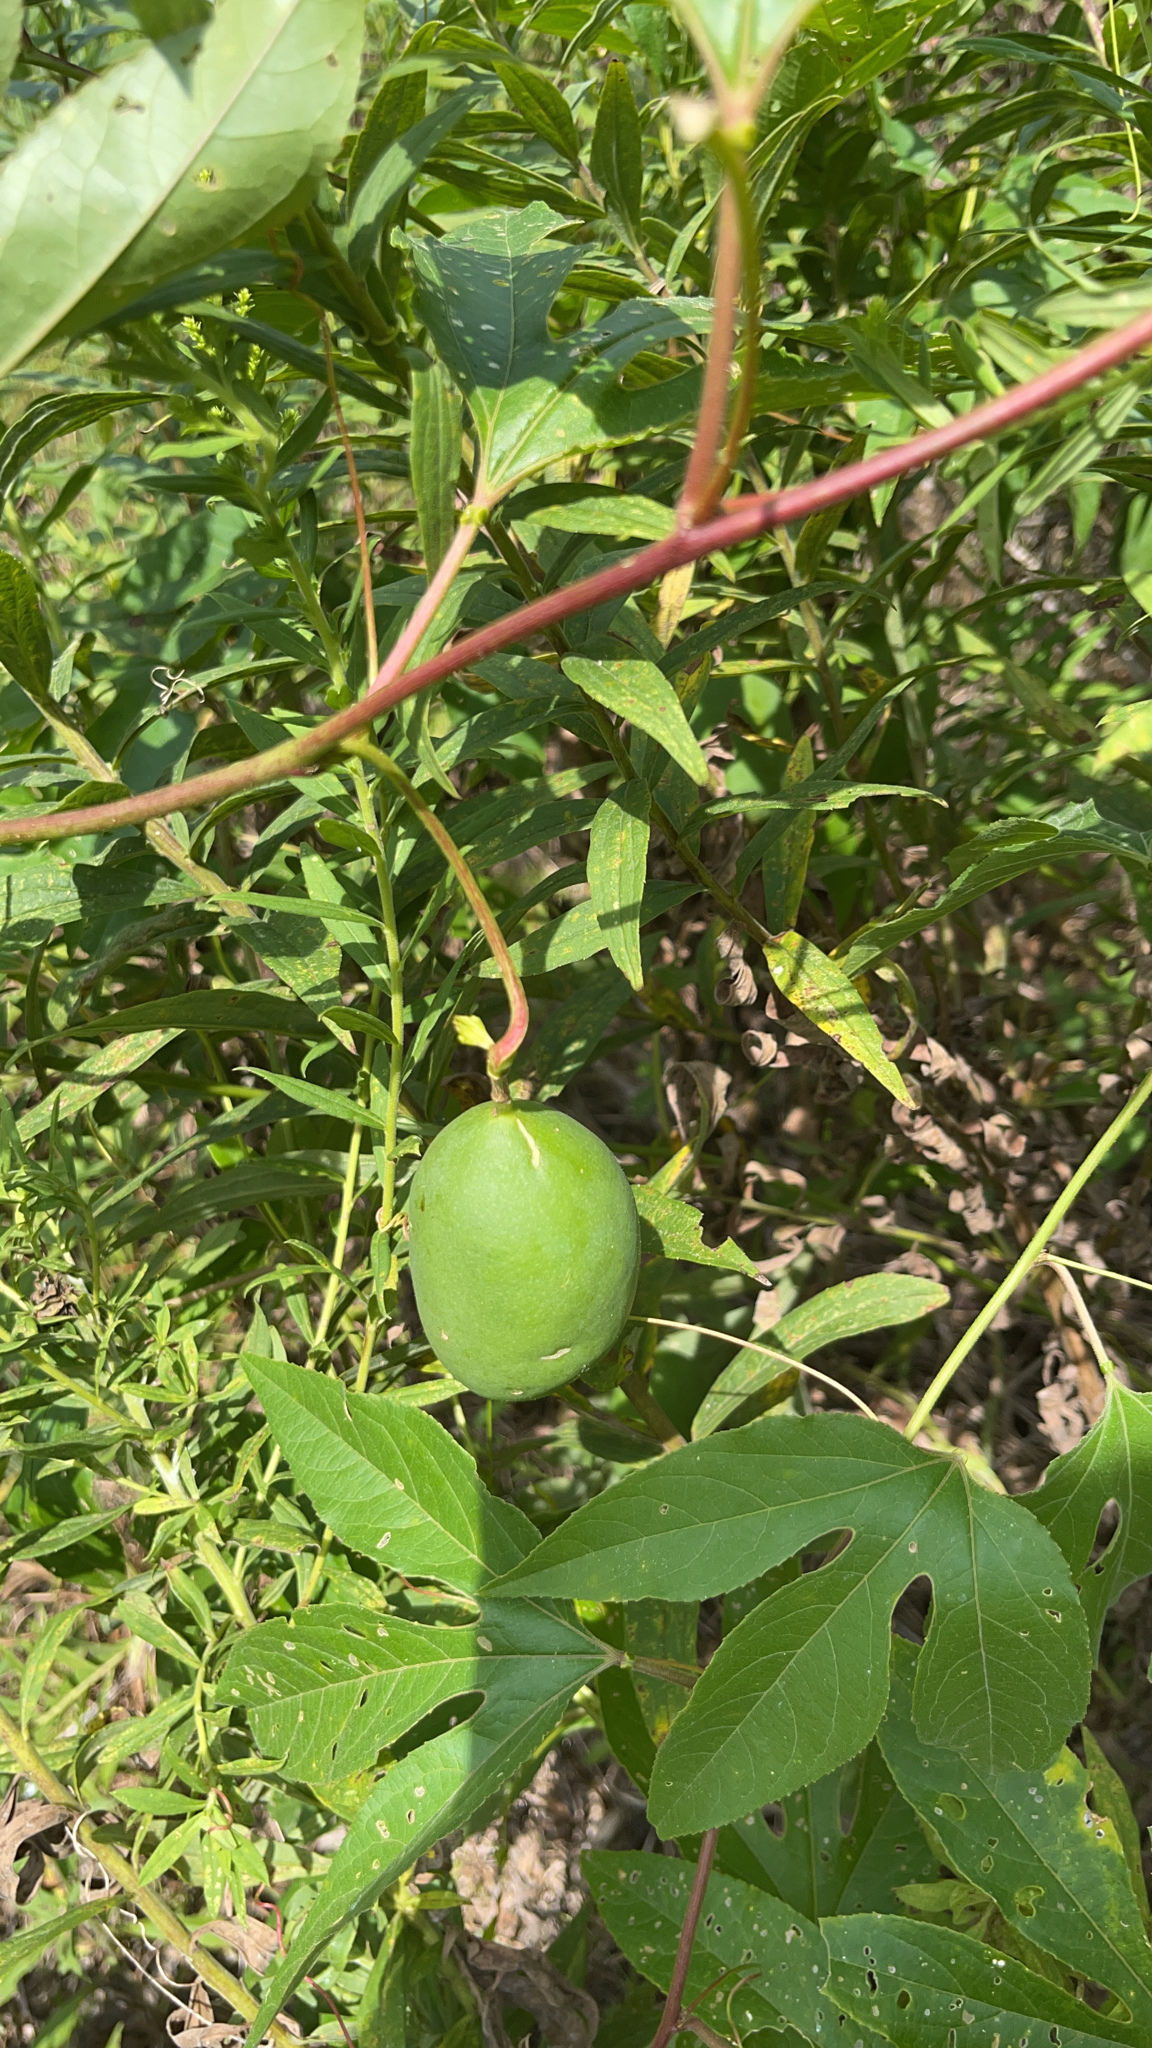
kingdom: Plantae
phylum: Tracheophyta
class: Magnoliopsida
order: Malpighiales
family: Passifloraceae
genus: Passiflora
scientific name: Passiflora incarnata
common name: Apricot-vine
